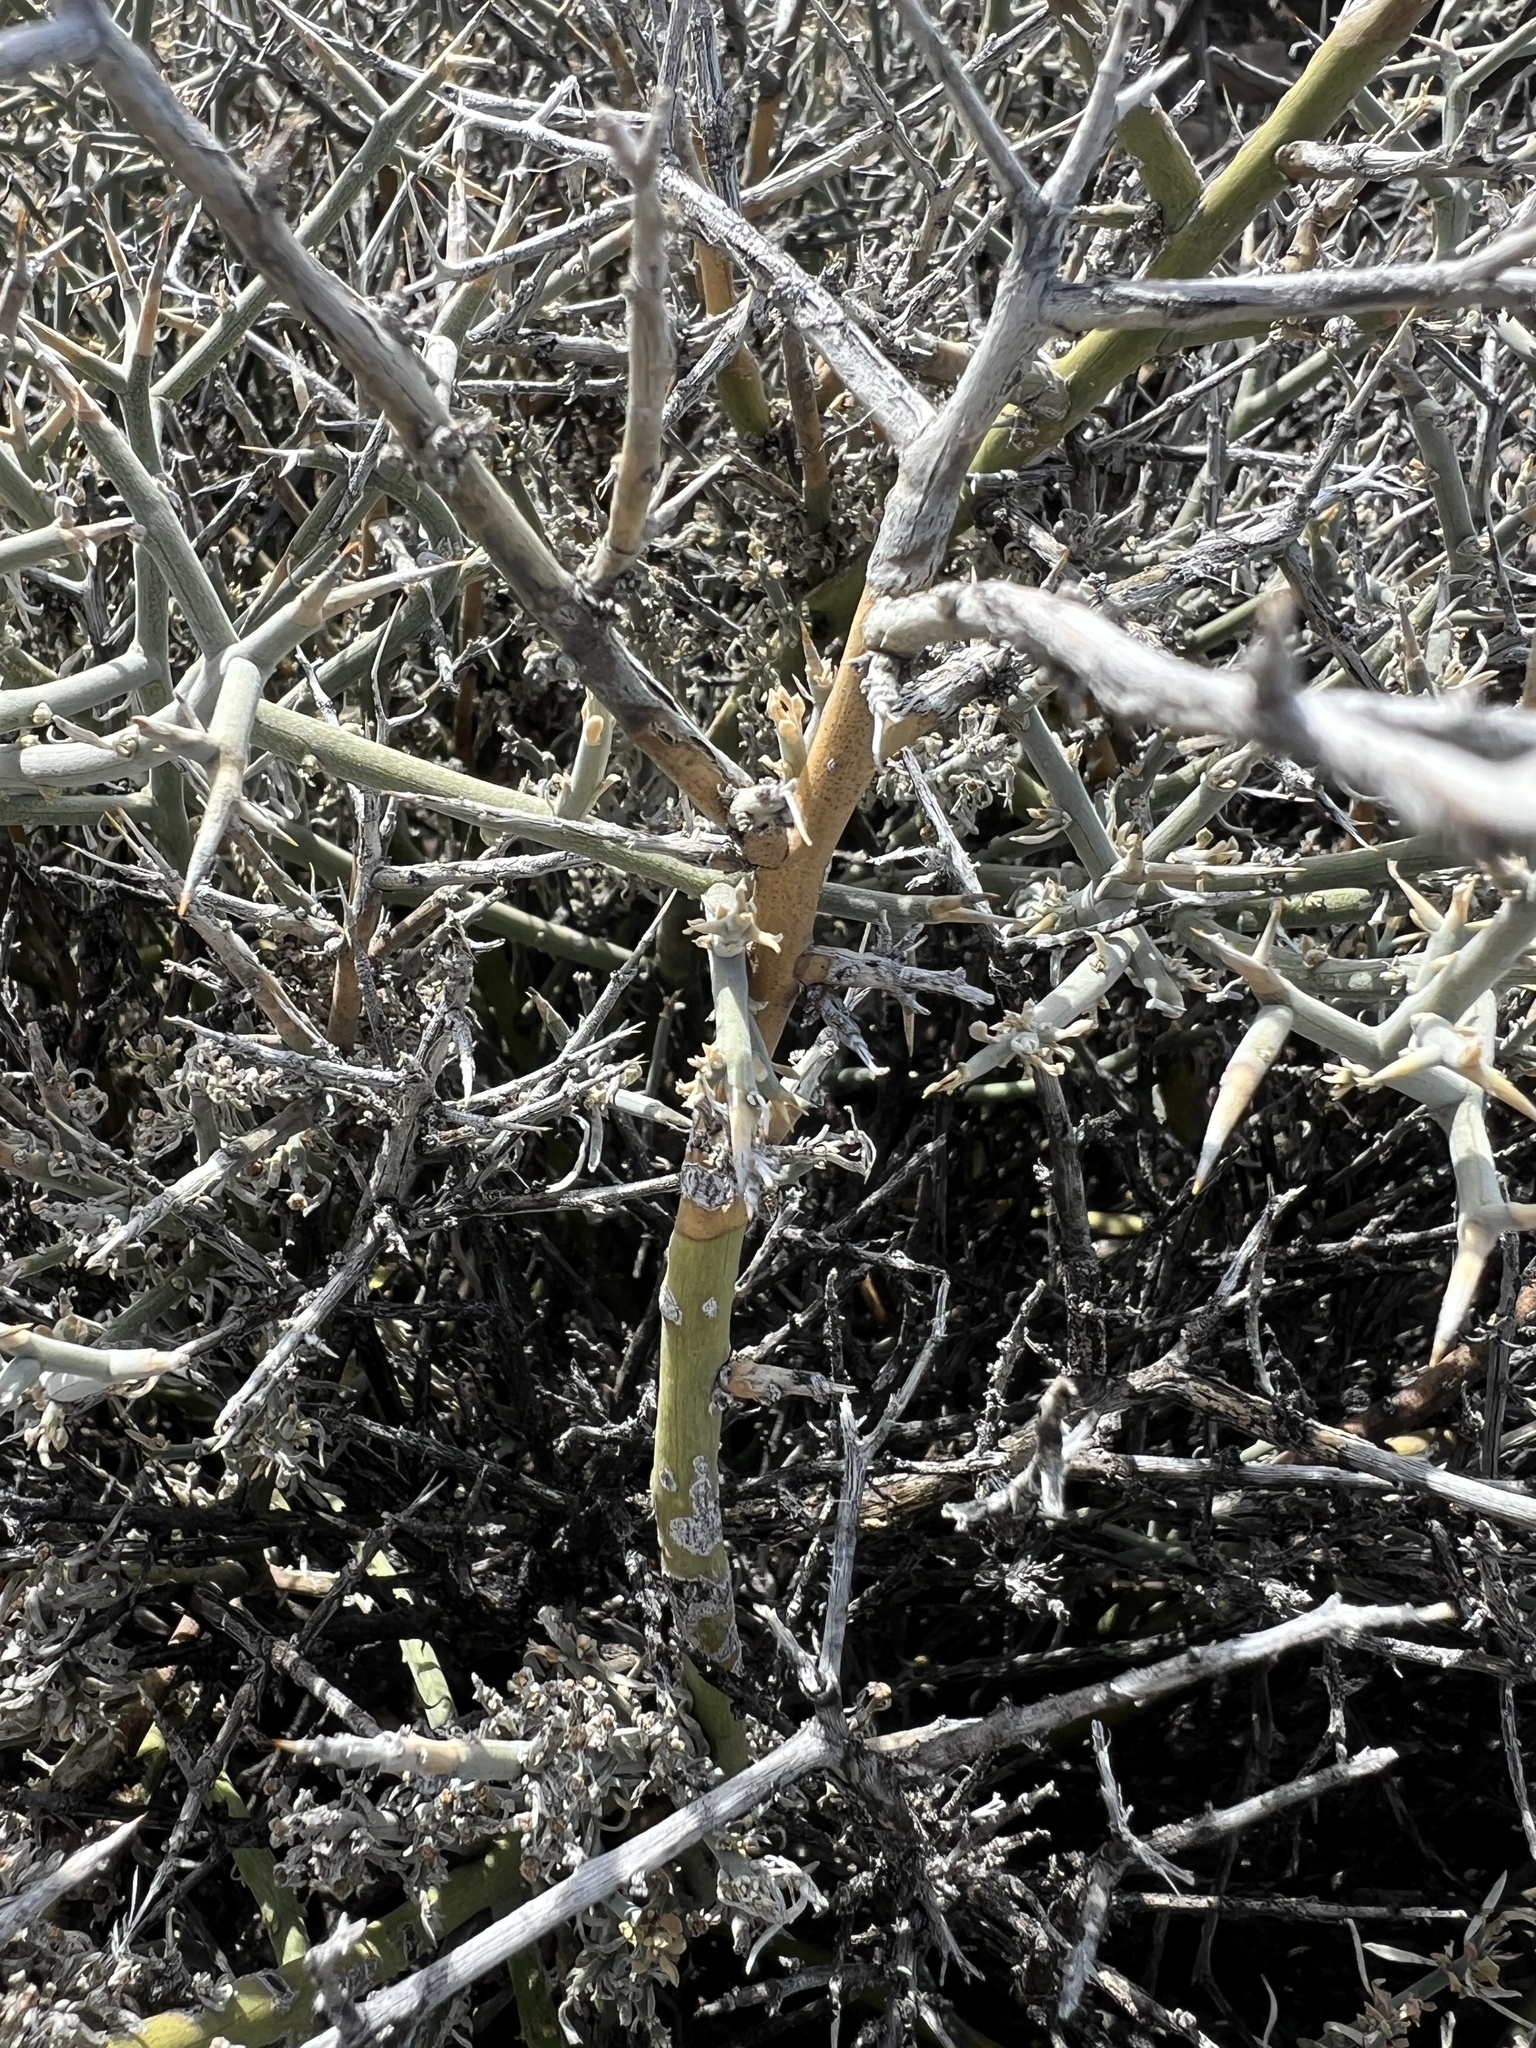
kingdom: Plantae
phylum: Tracheophyta
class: Magnoliopsida
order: Lamiales
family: Oleaceae
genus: Menodora
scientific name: Menodora spinescens
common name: Spiny menodora
